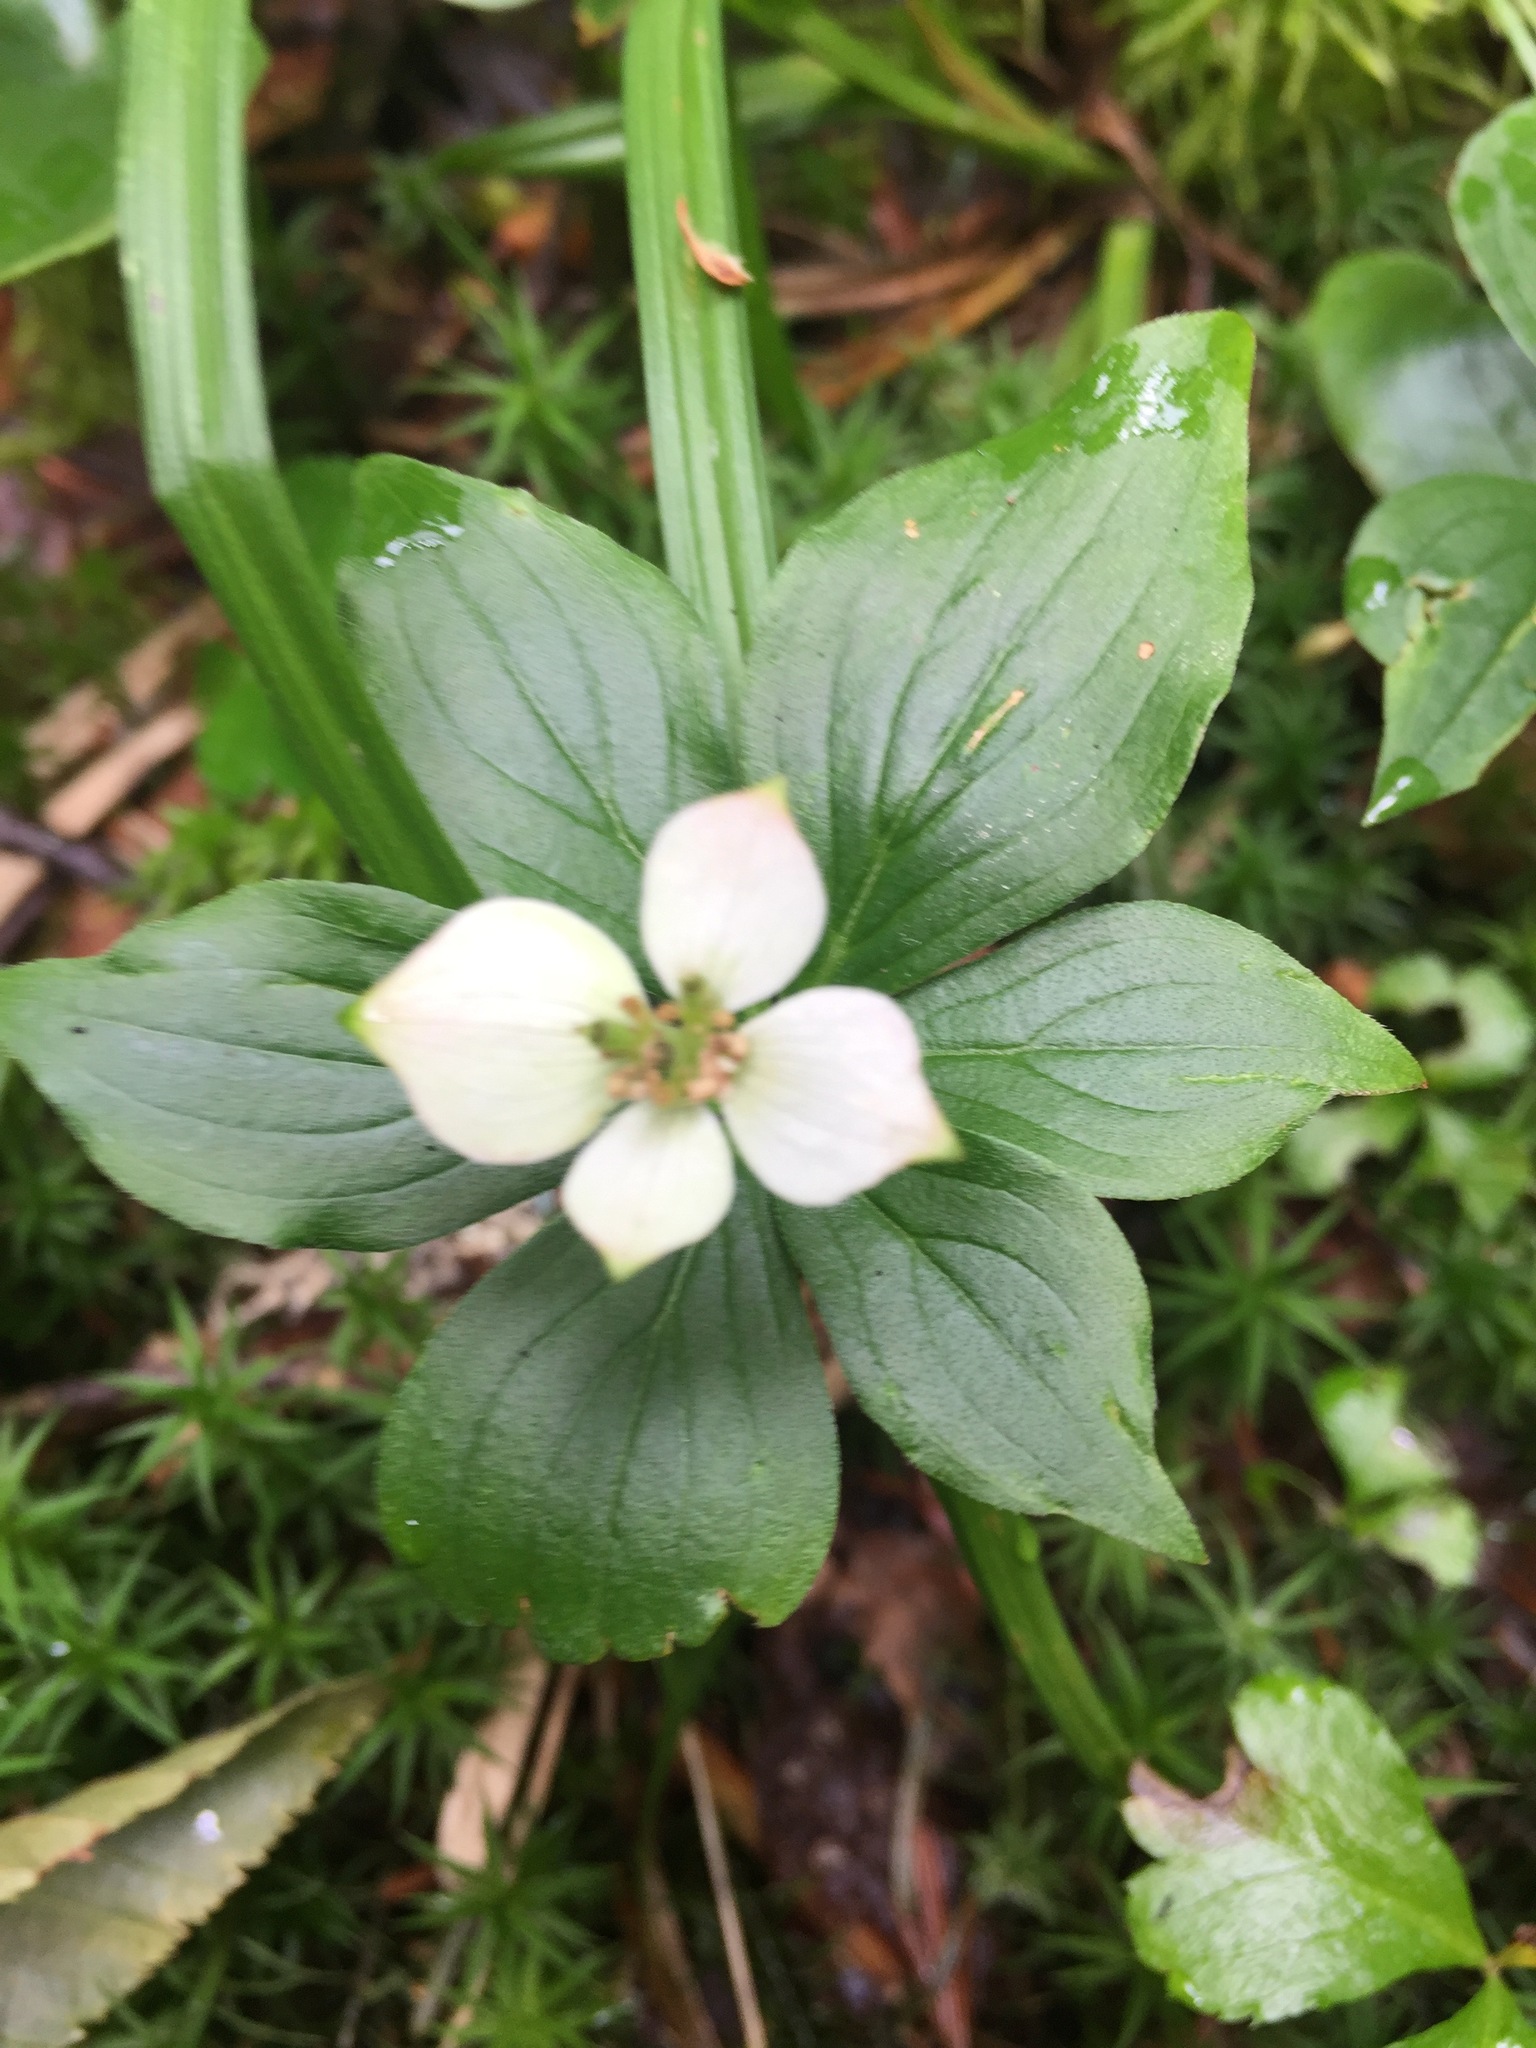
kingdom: Plantae
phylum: Tracheophyta
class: Magnoliopsida
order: Cornales
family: Cornaceae
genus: Cornus
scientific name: Cornus canadensis
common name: Creeping dogwood
